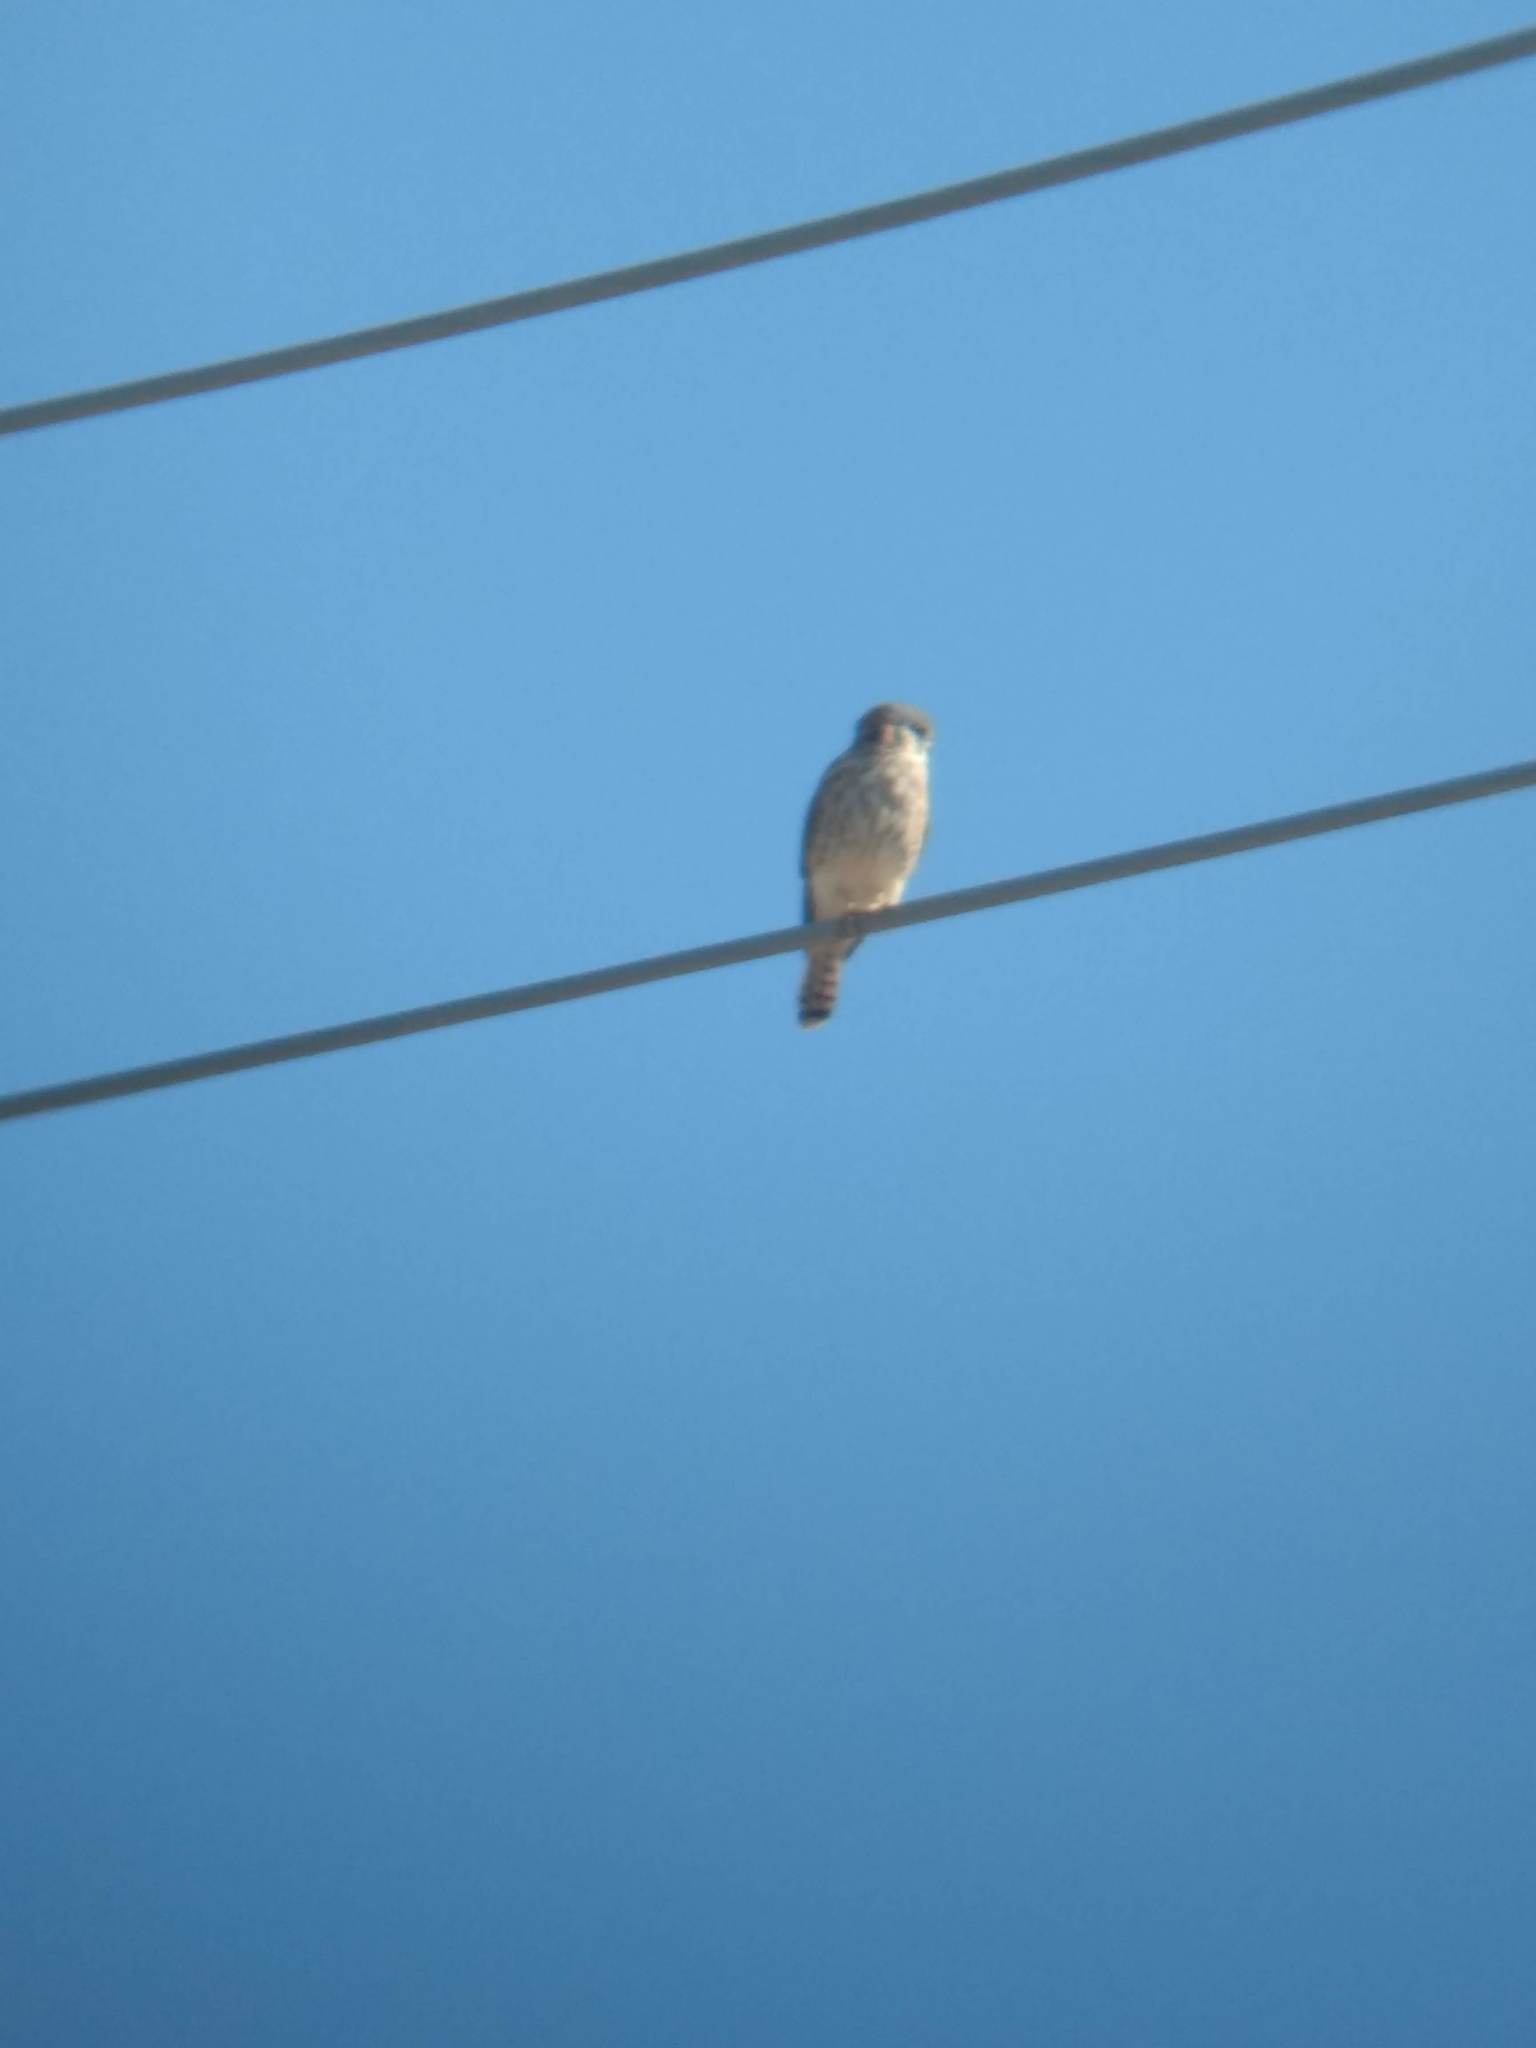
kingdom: Animalia
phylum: Chordata
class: Aves
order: Falconiformes
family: Falconidae
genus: Falco
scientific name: Falco sparverius
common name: American kestrel
